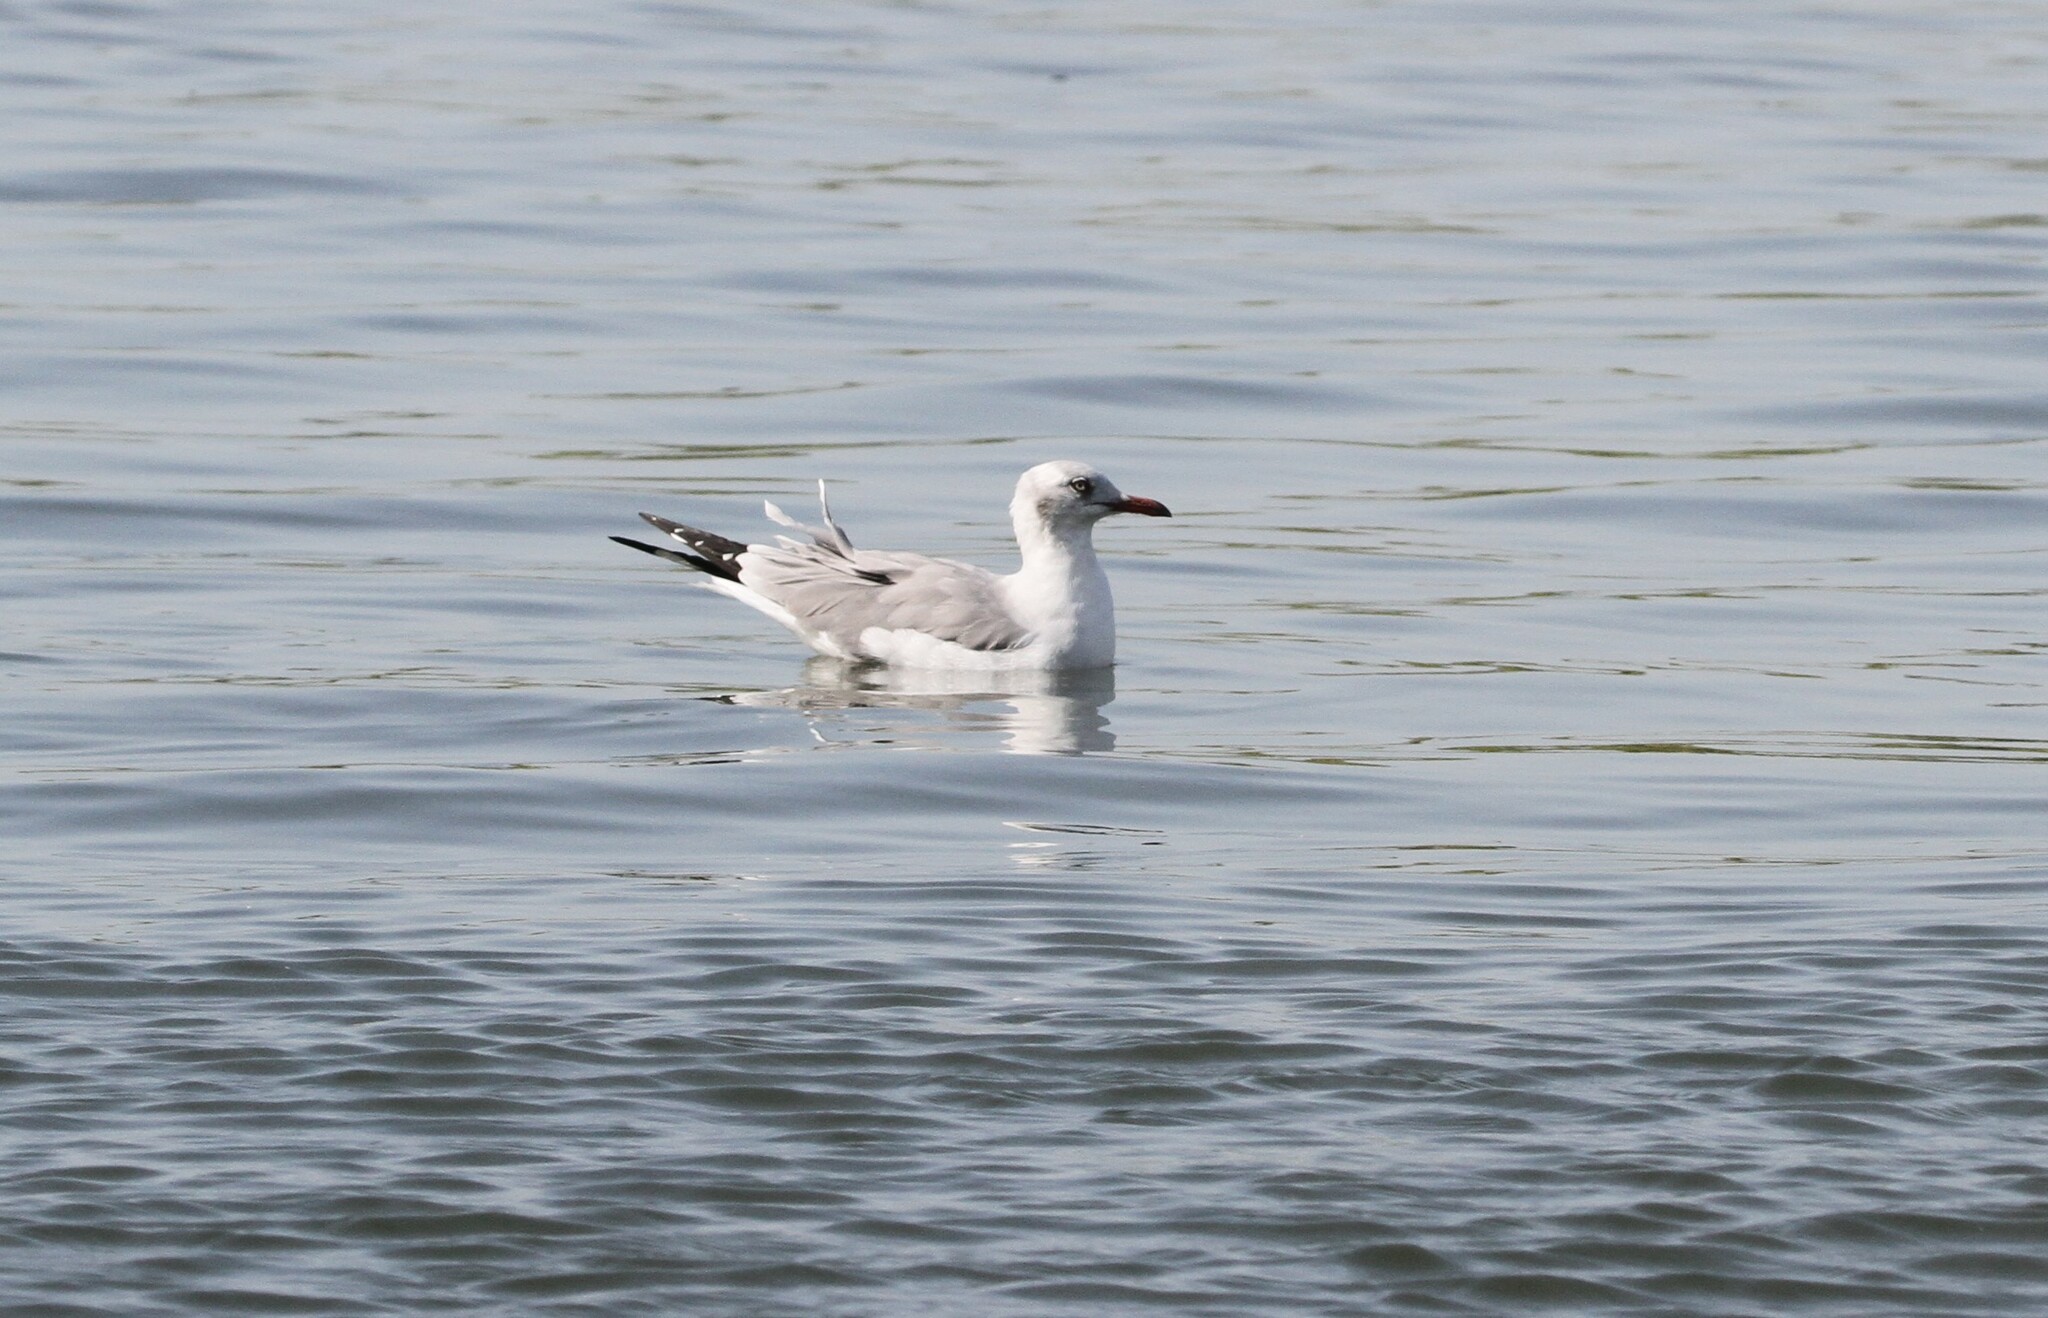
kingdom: Animalia
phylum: Chordata
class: Aves
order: Charadriiformes
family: Laridae
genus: Chroicocephalus
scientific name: Chroicocephalus cirrocephalus
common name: Grey-headed gull
